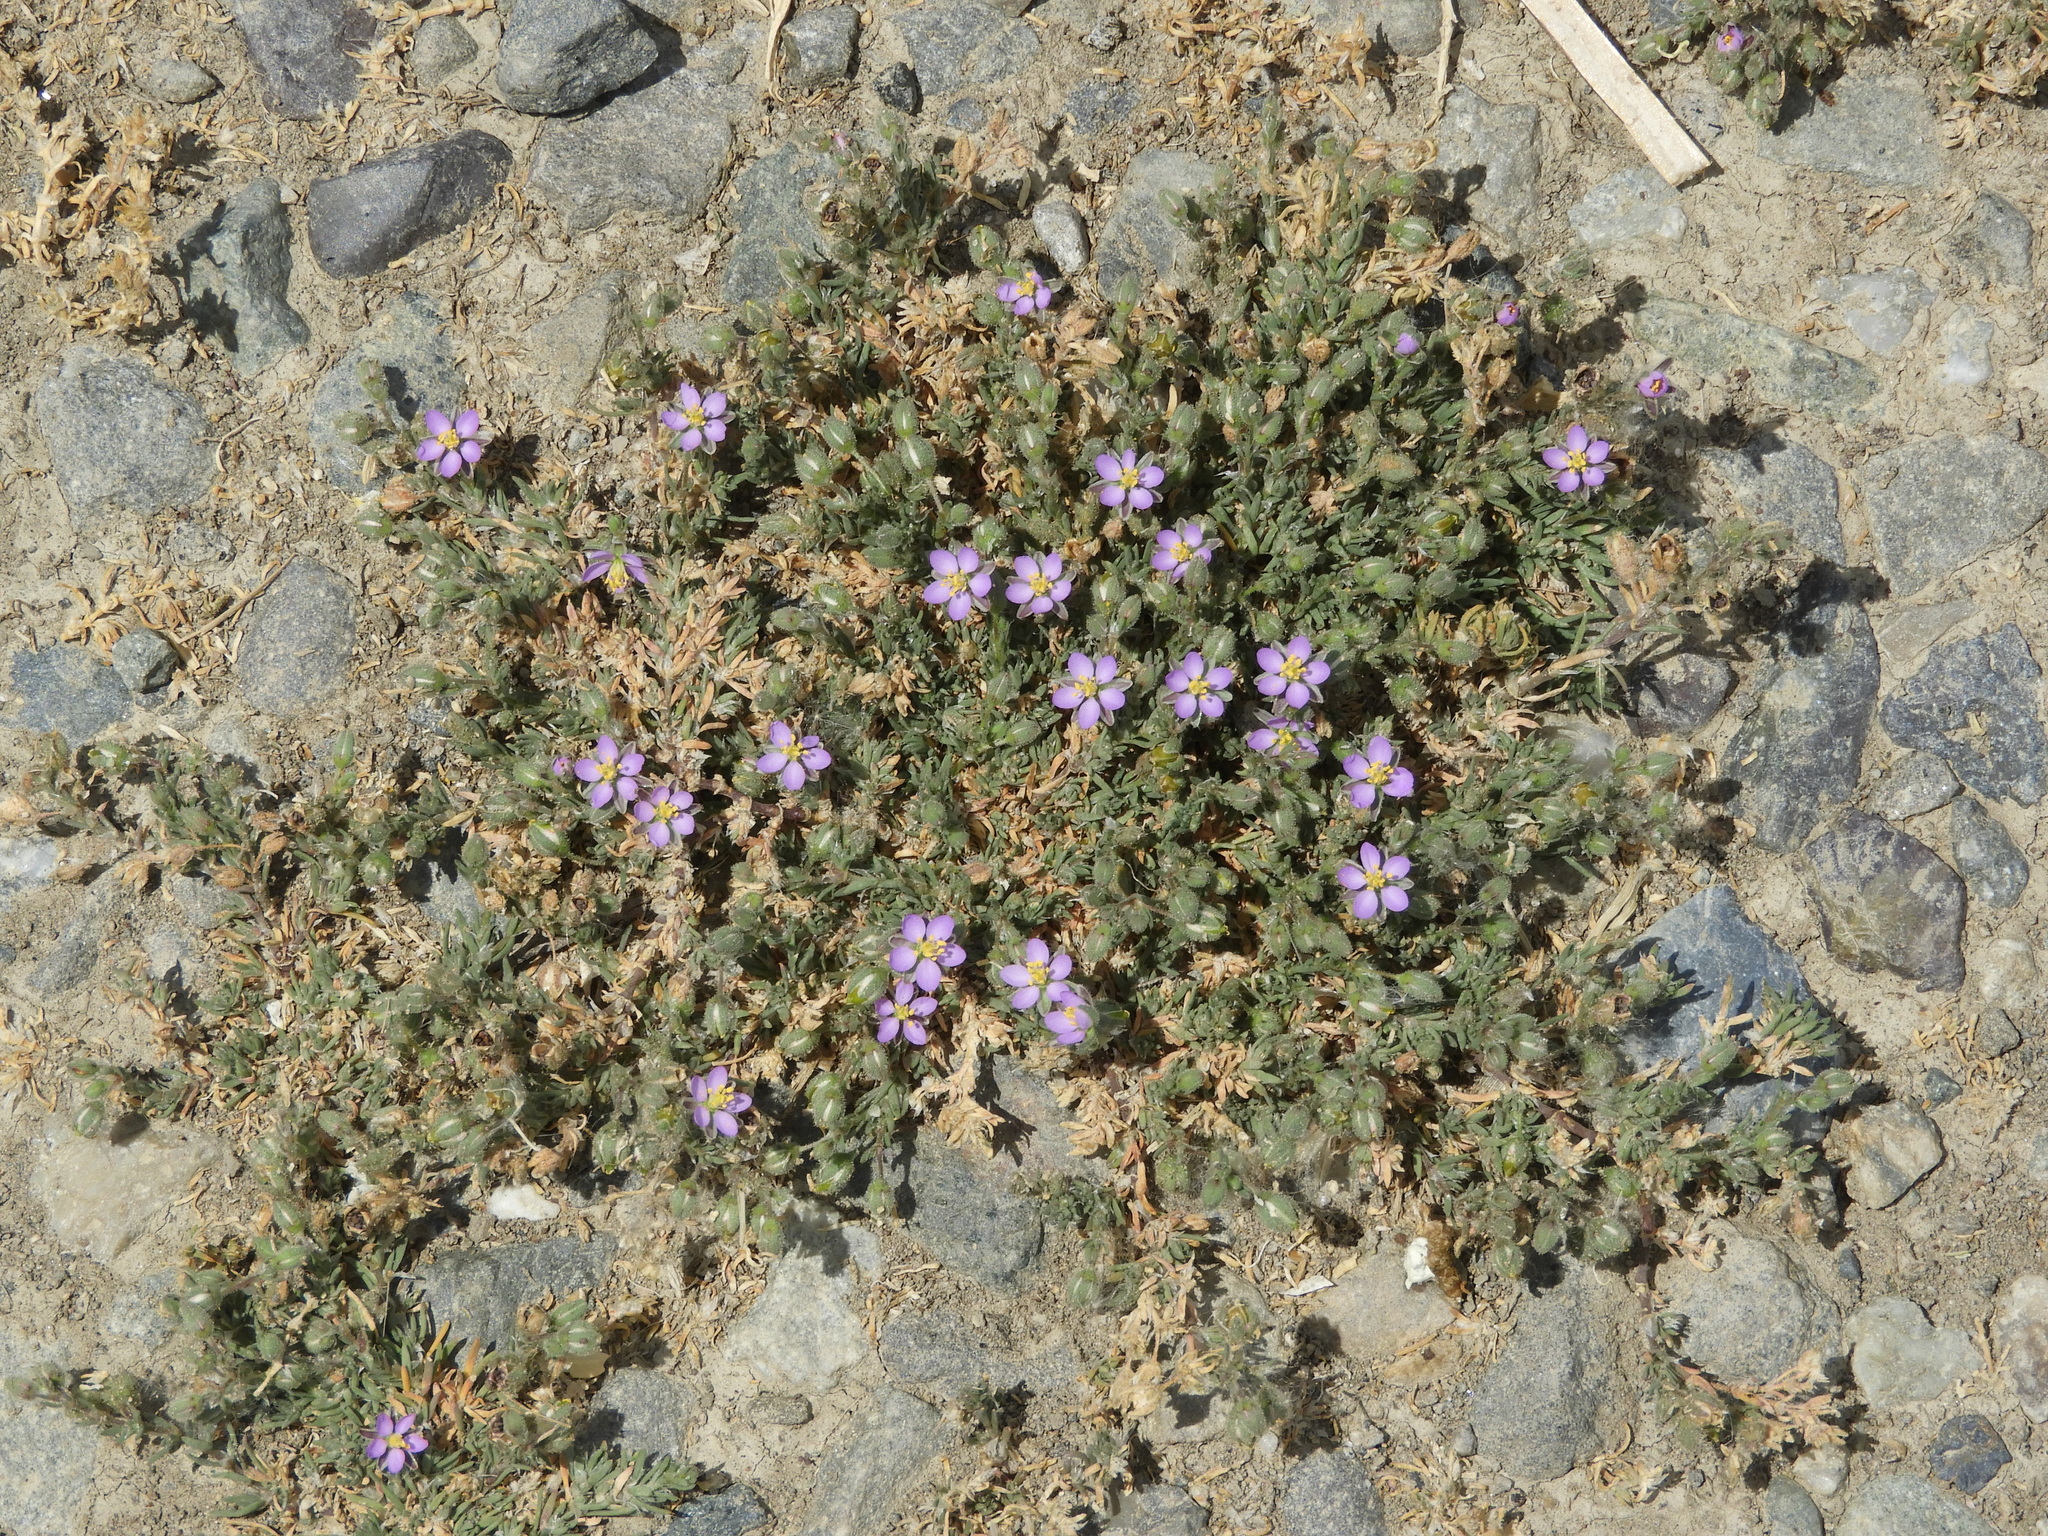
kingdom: Plantae
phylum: Tracheophyta
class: Magnoliopsida
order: Caryophyllales
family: Caryophyllaceae
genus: Spergularia
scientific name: Spergularia rubra
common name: Red sand-spurrey
